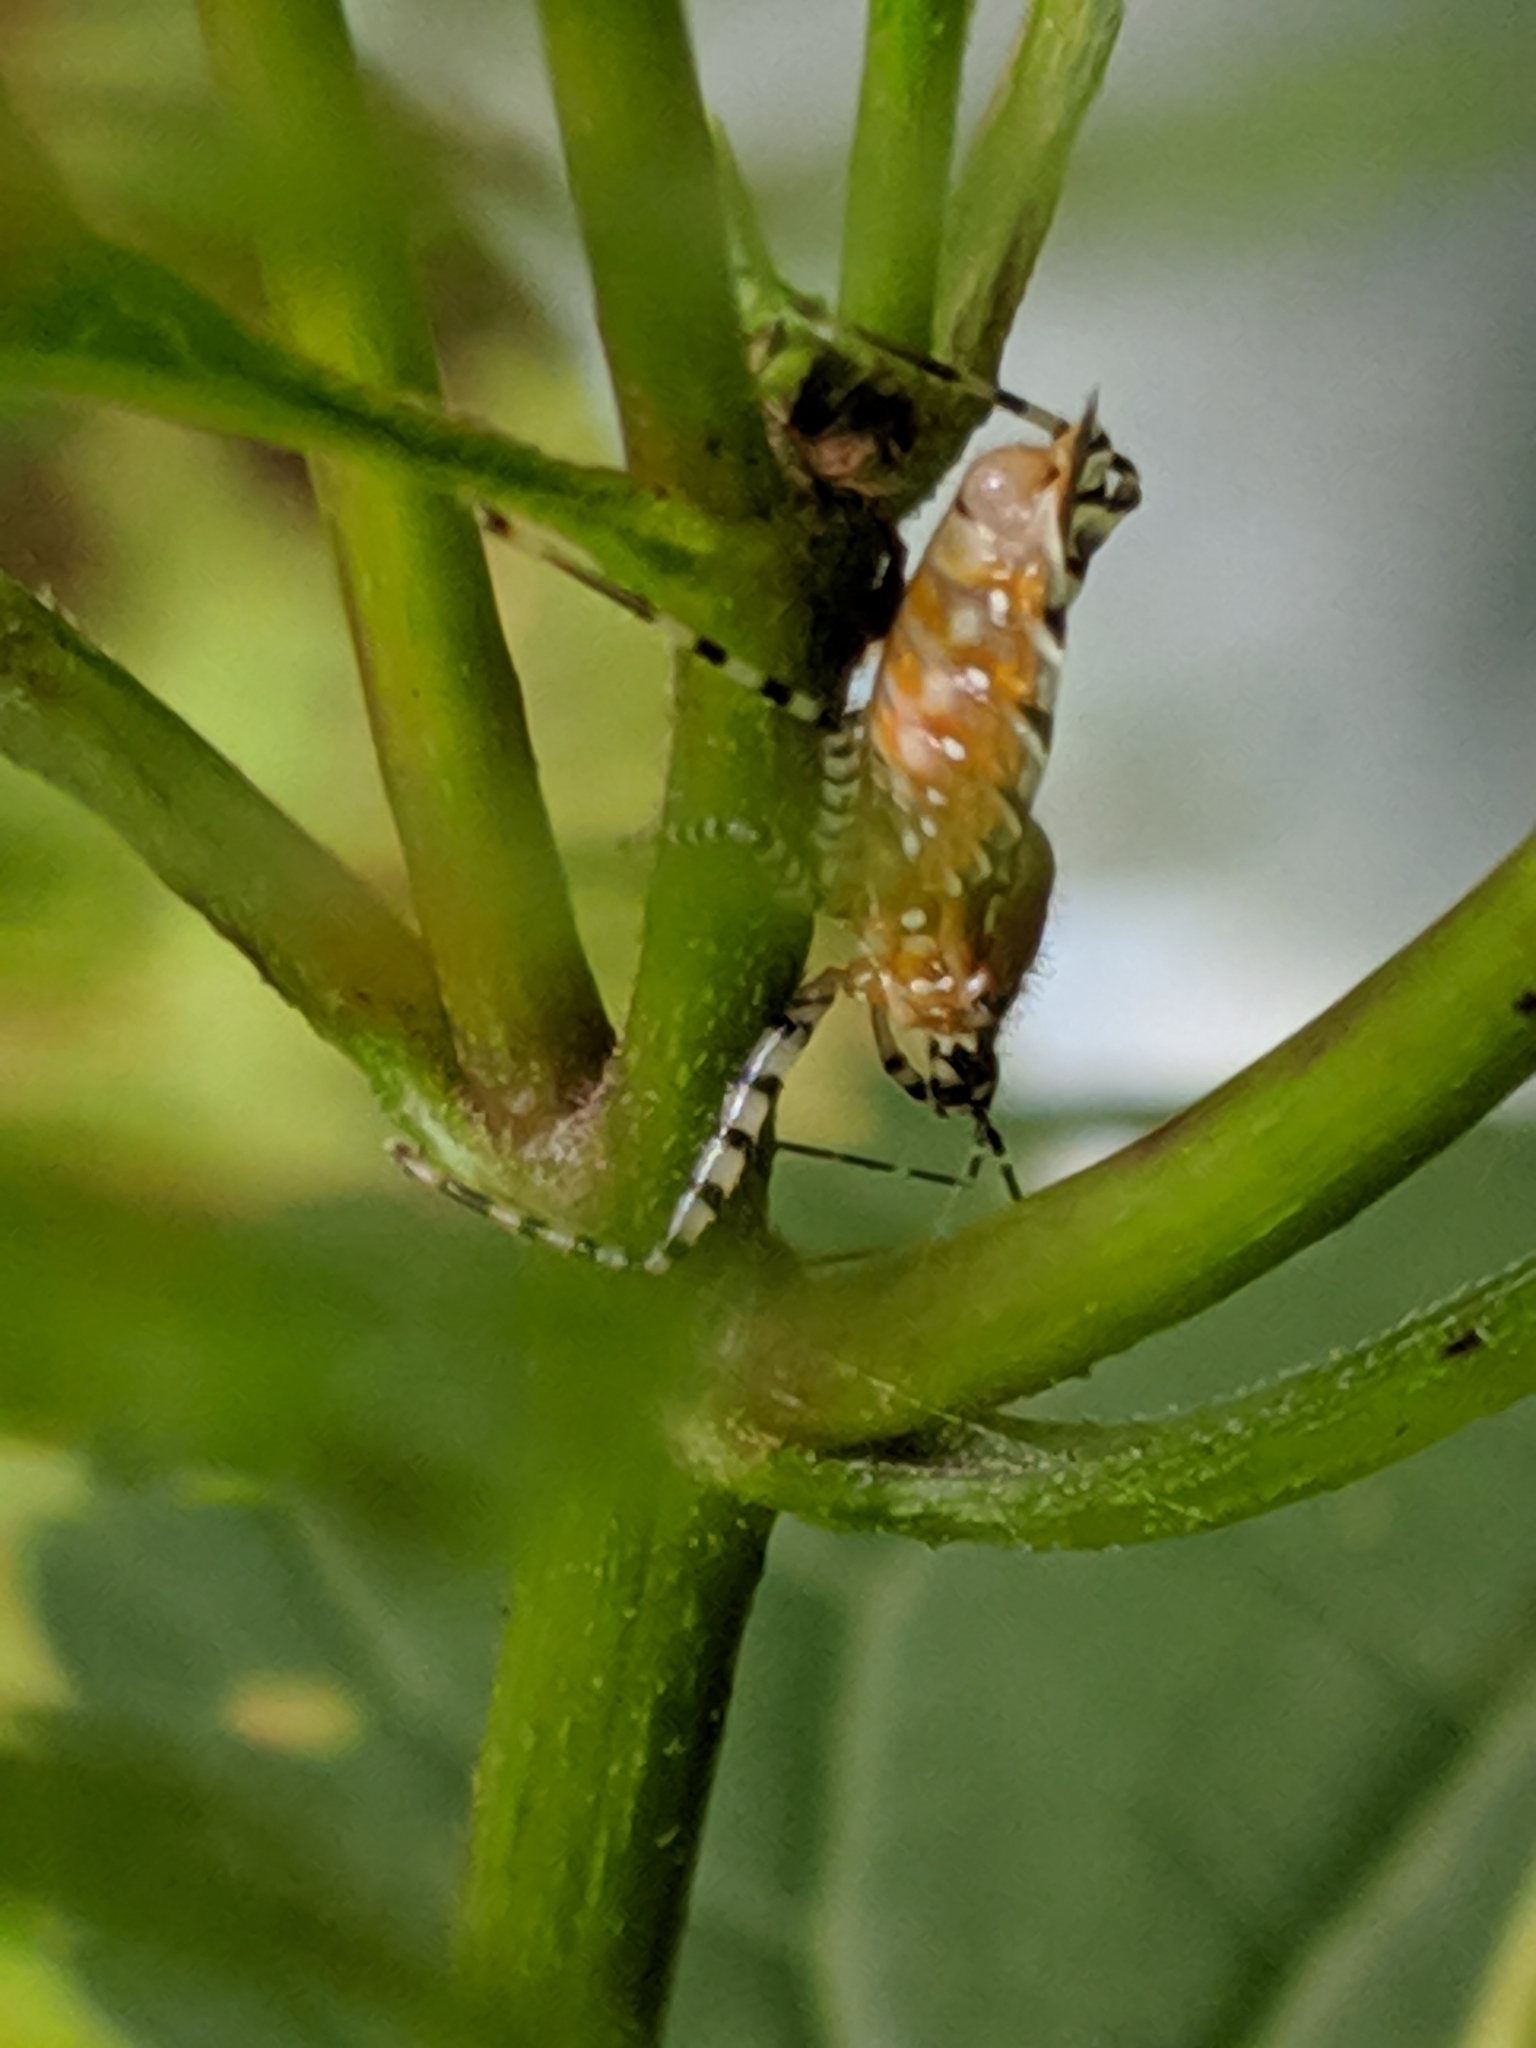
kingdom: Animalia
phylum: Arthropoda
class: Insecta
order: Hemiptera
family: Reduviidae
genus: Pselliopus
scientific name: Pselliopus cinctus
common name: Ringed assassin bug
